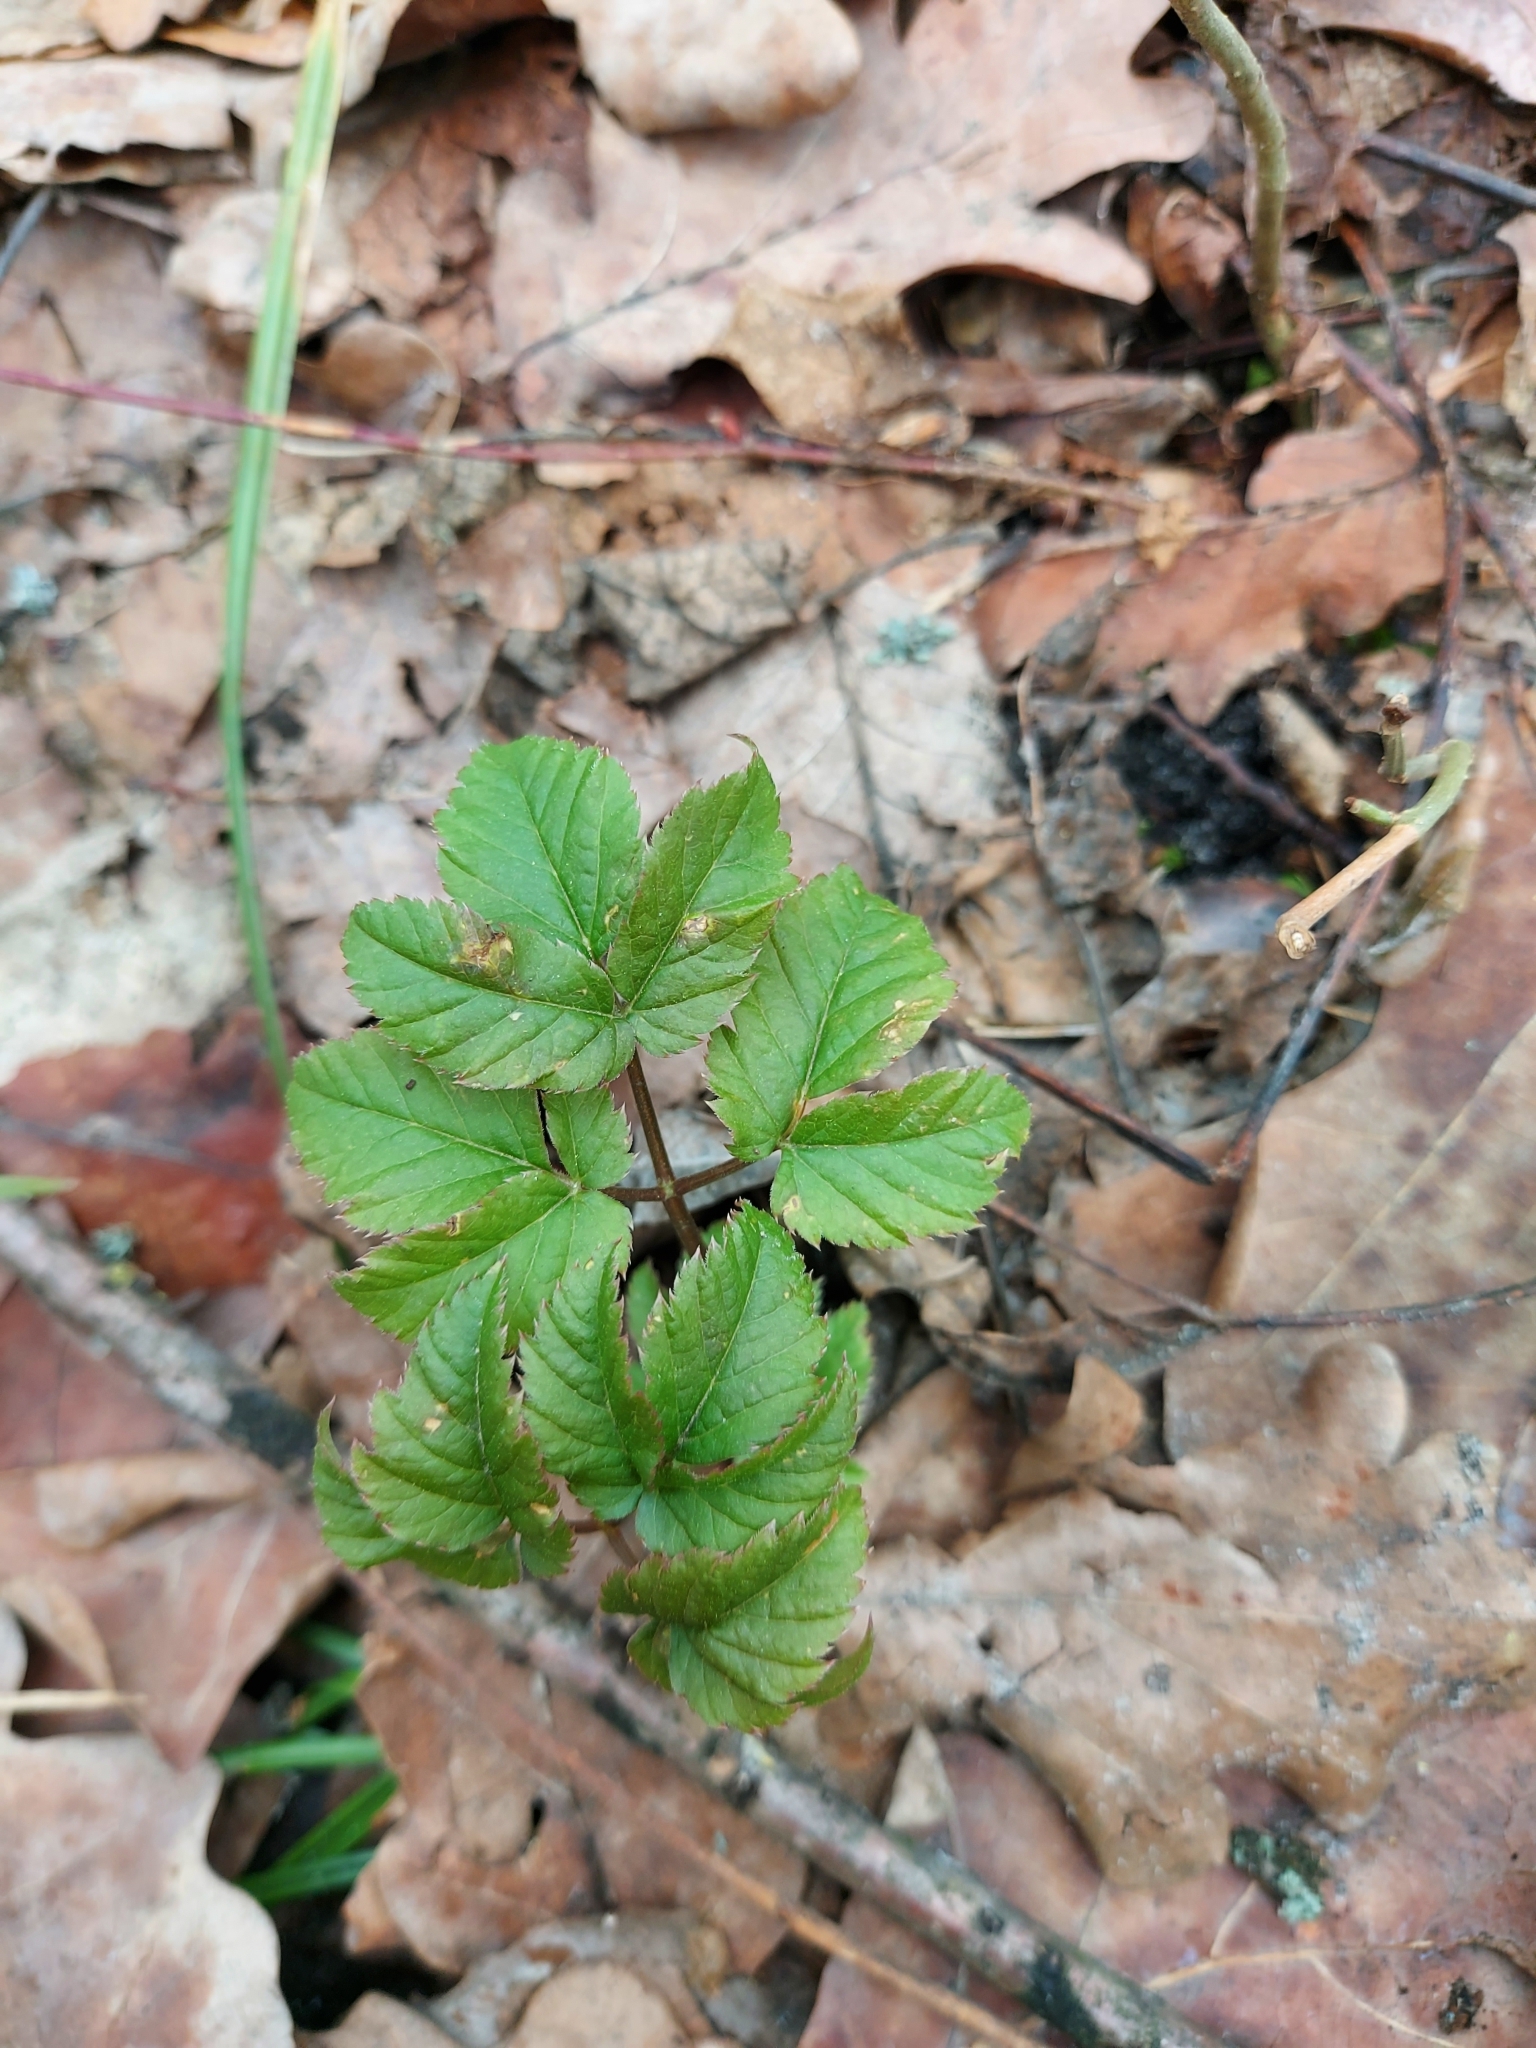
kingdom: Plantae
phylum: Tracheophyta
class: Magnoliopsida
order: Apiales
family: Apiaceae
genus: Aegopodium
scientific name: Aegopodium podagraria
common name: Ground-elder
